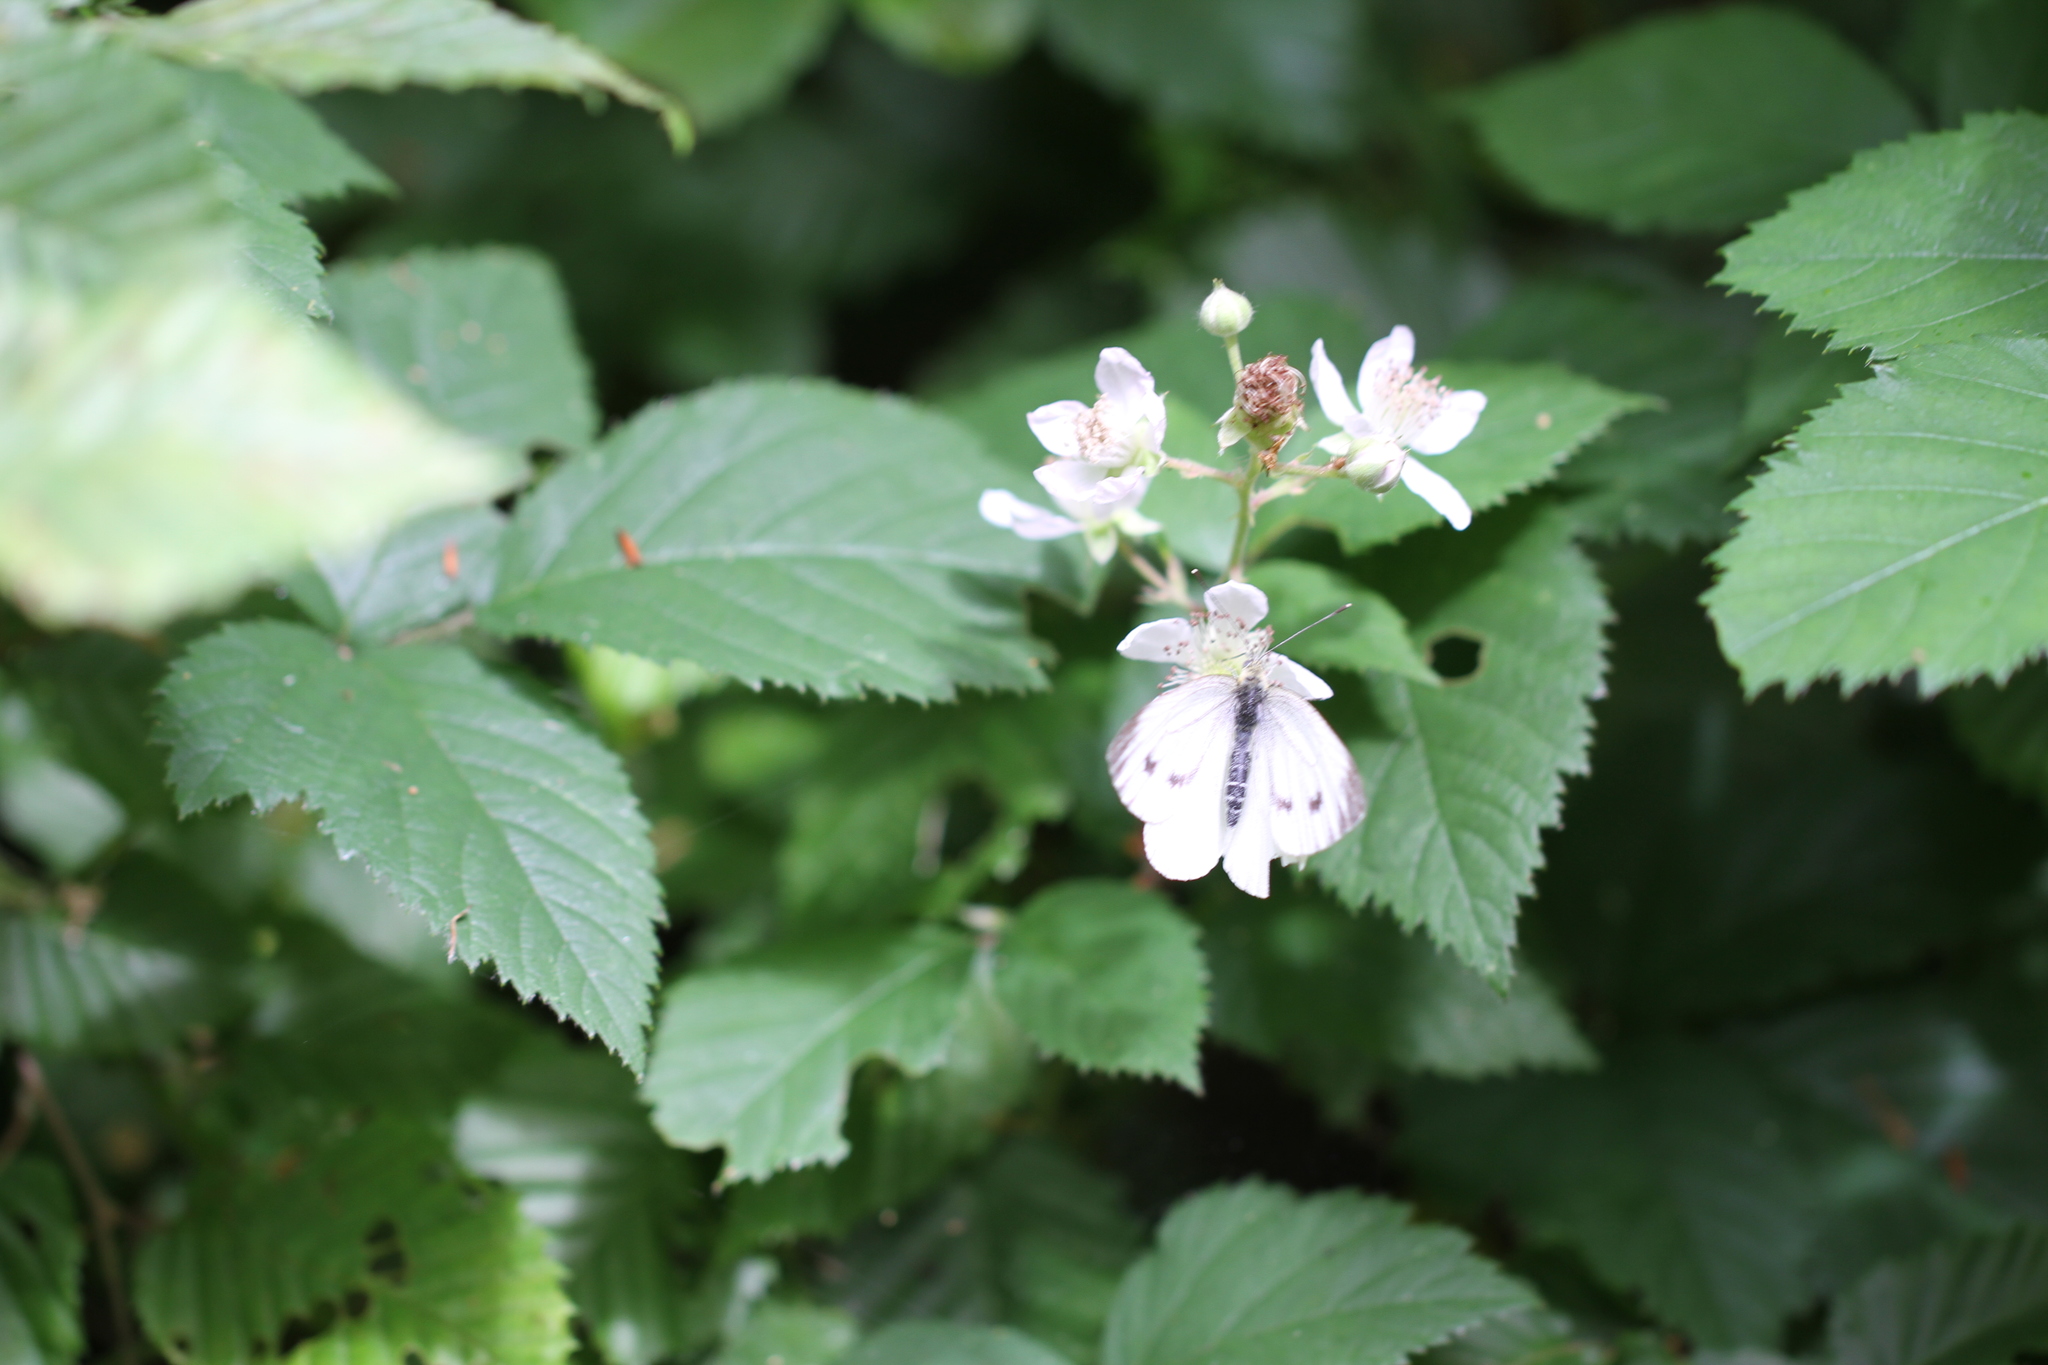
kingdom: Animalia
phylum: Arthropoda
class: Insecta
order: Lepidoptera
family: Pieridae
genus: Pieris
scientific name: Pieris napi
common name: Green-veined white
